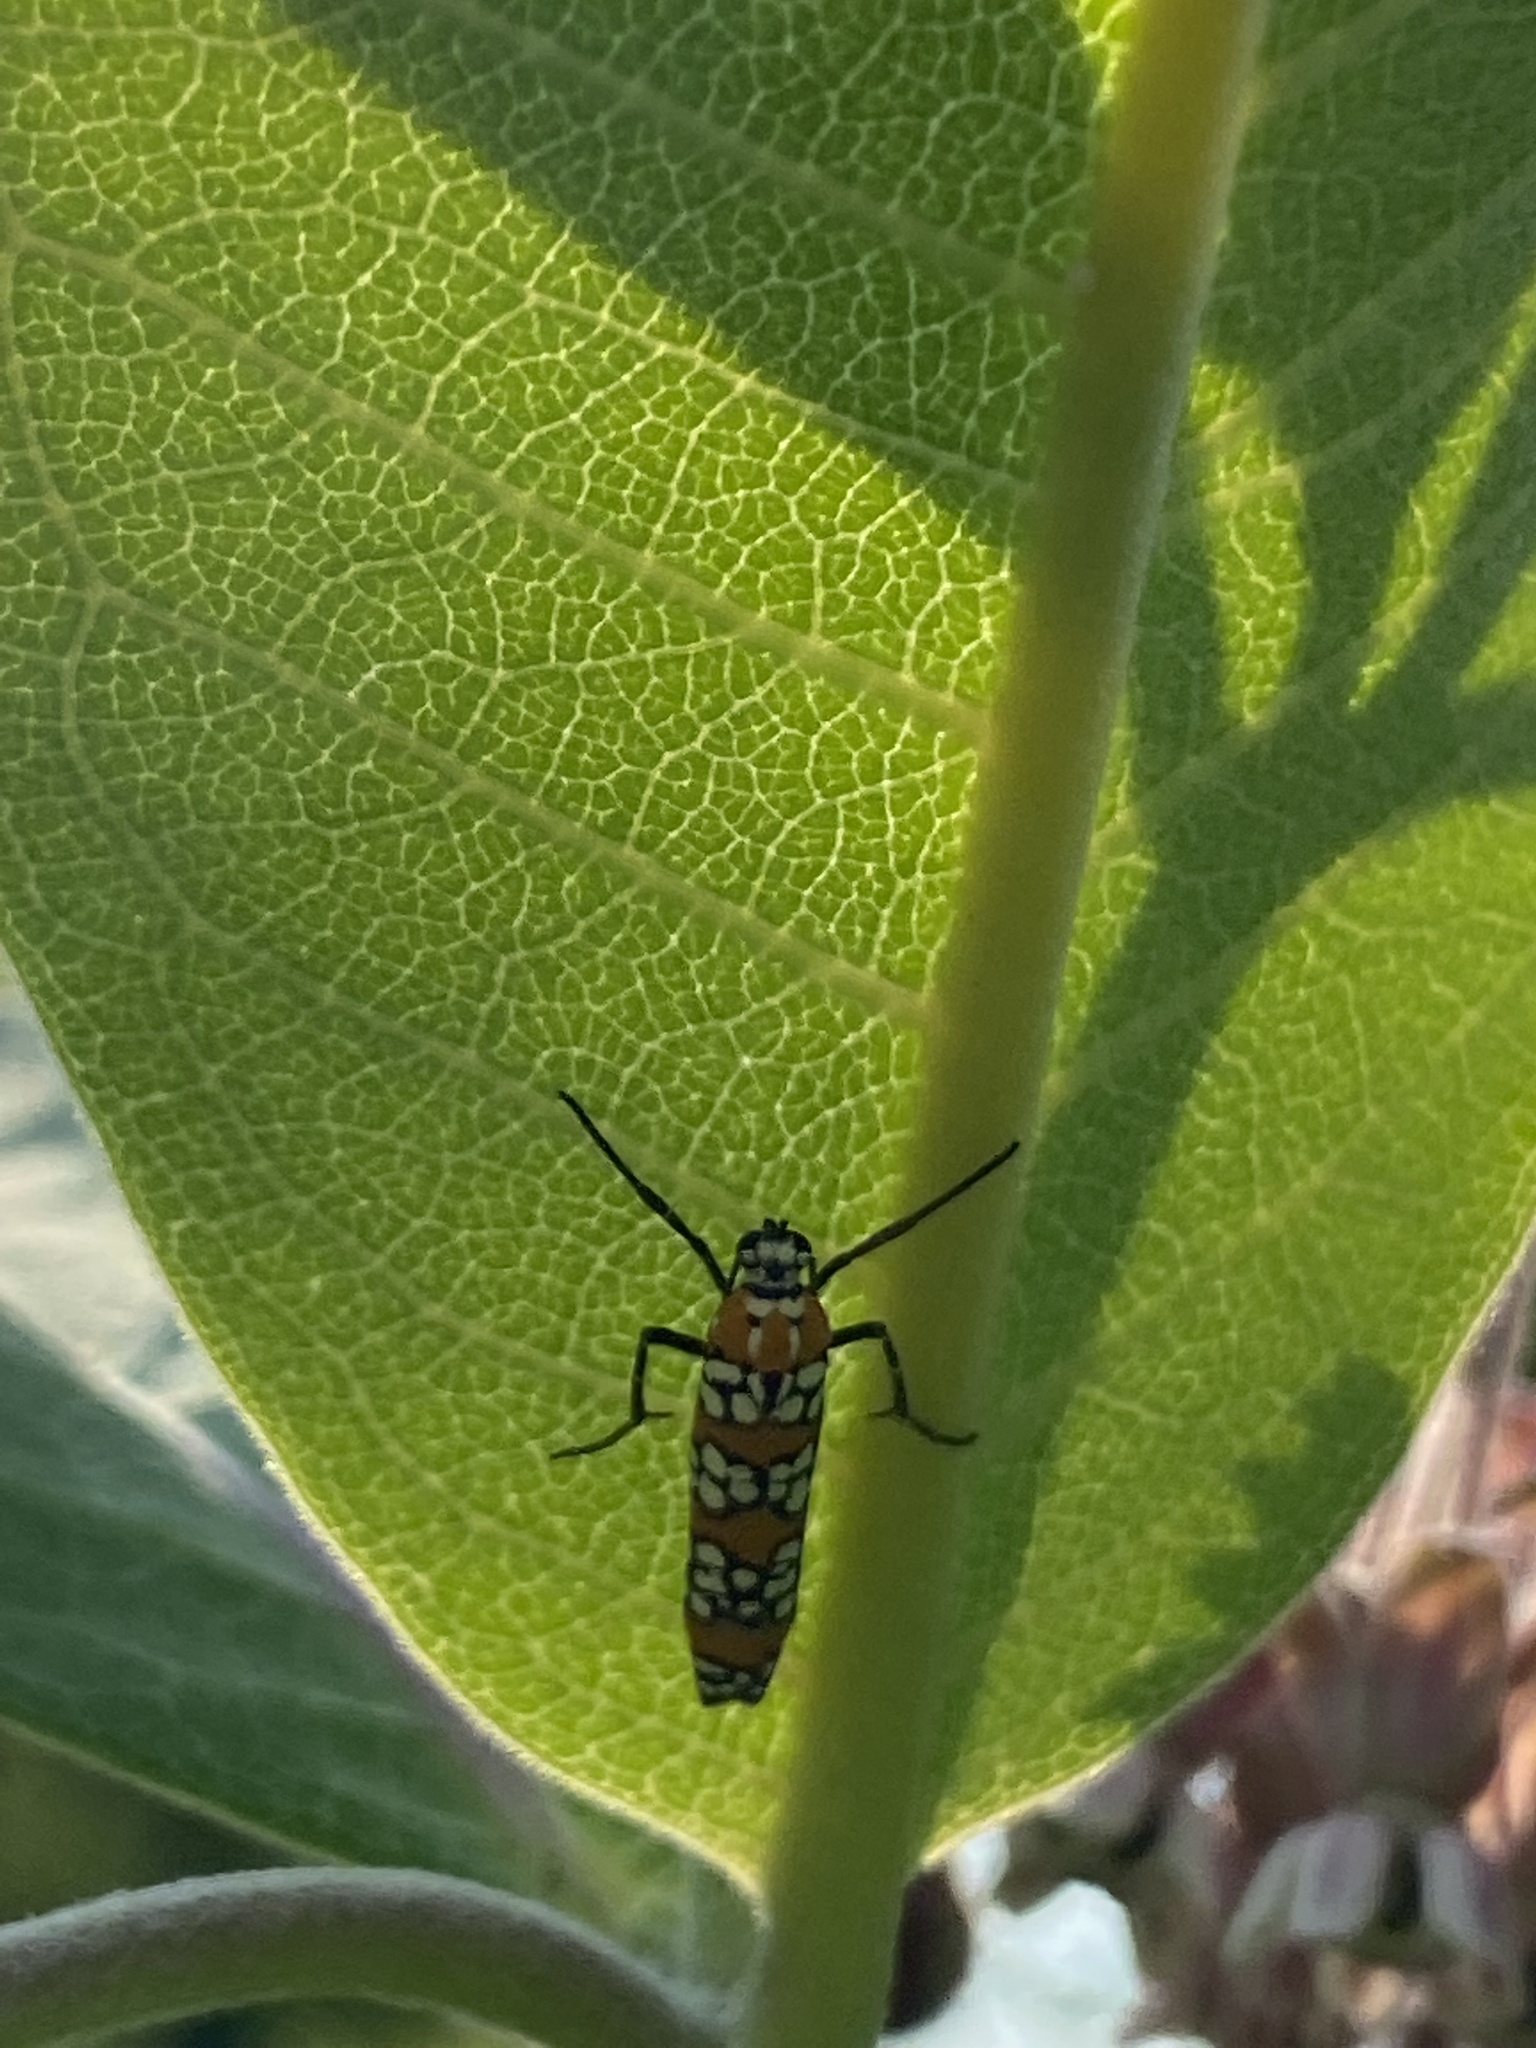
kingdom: Animalia
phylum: Arthropoda
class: Insecta
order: Lepidoptera
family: Attevidae
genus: Atteva
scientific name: Atteva punctella
